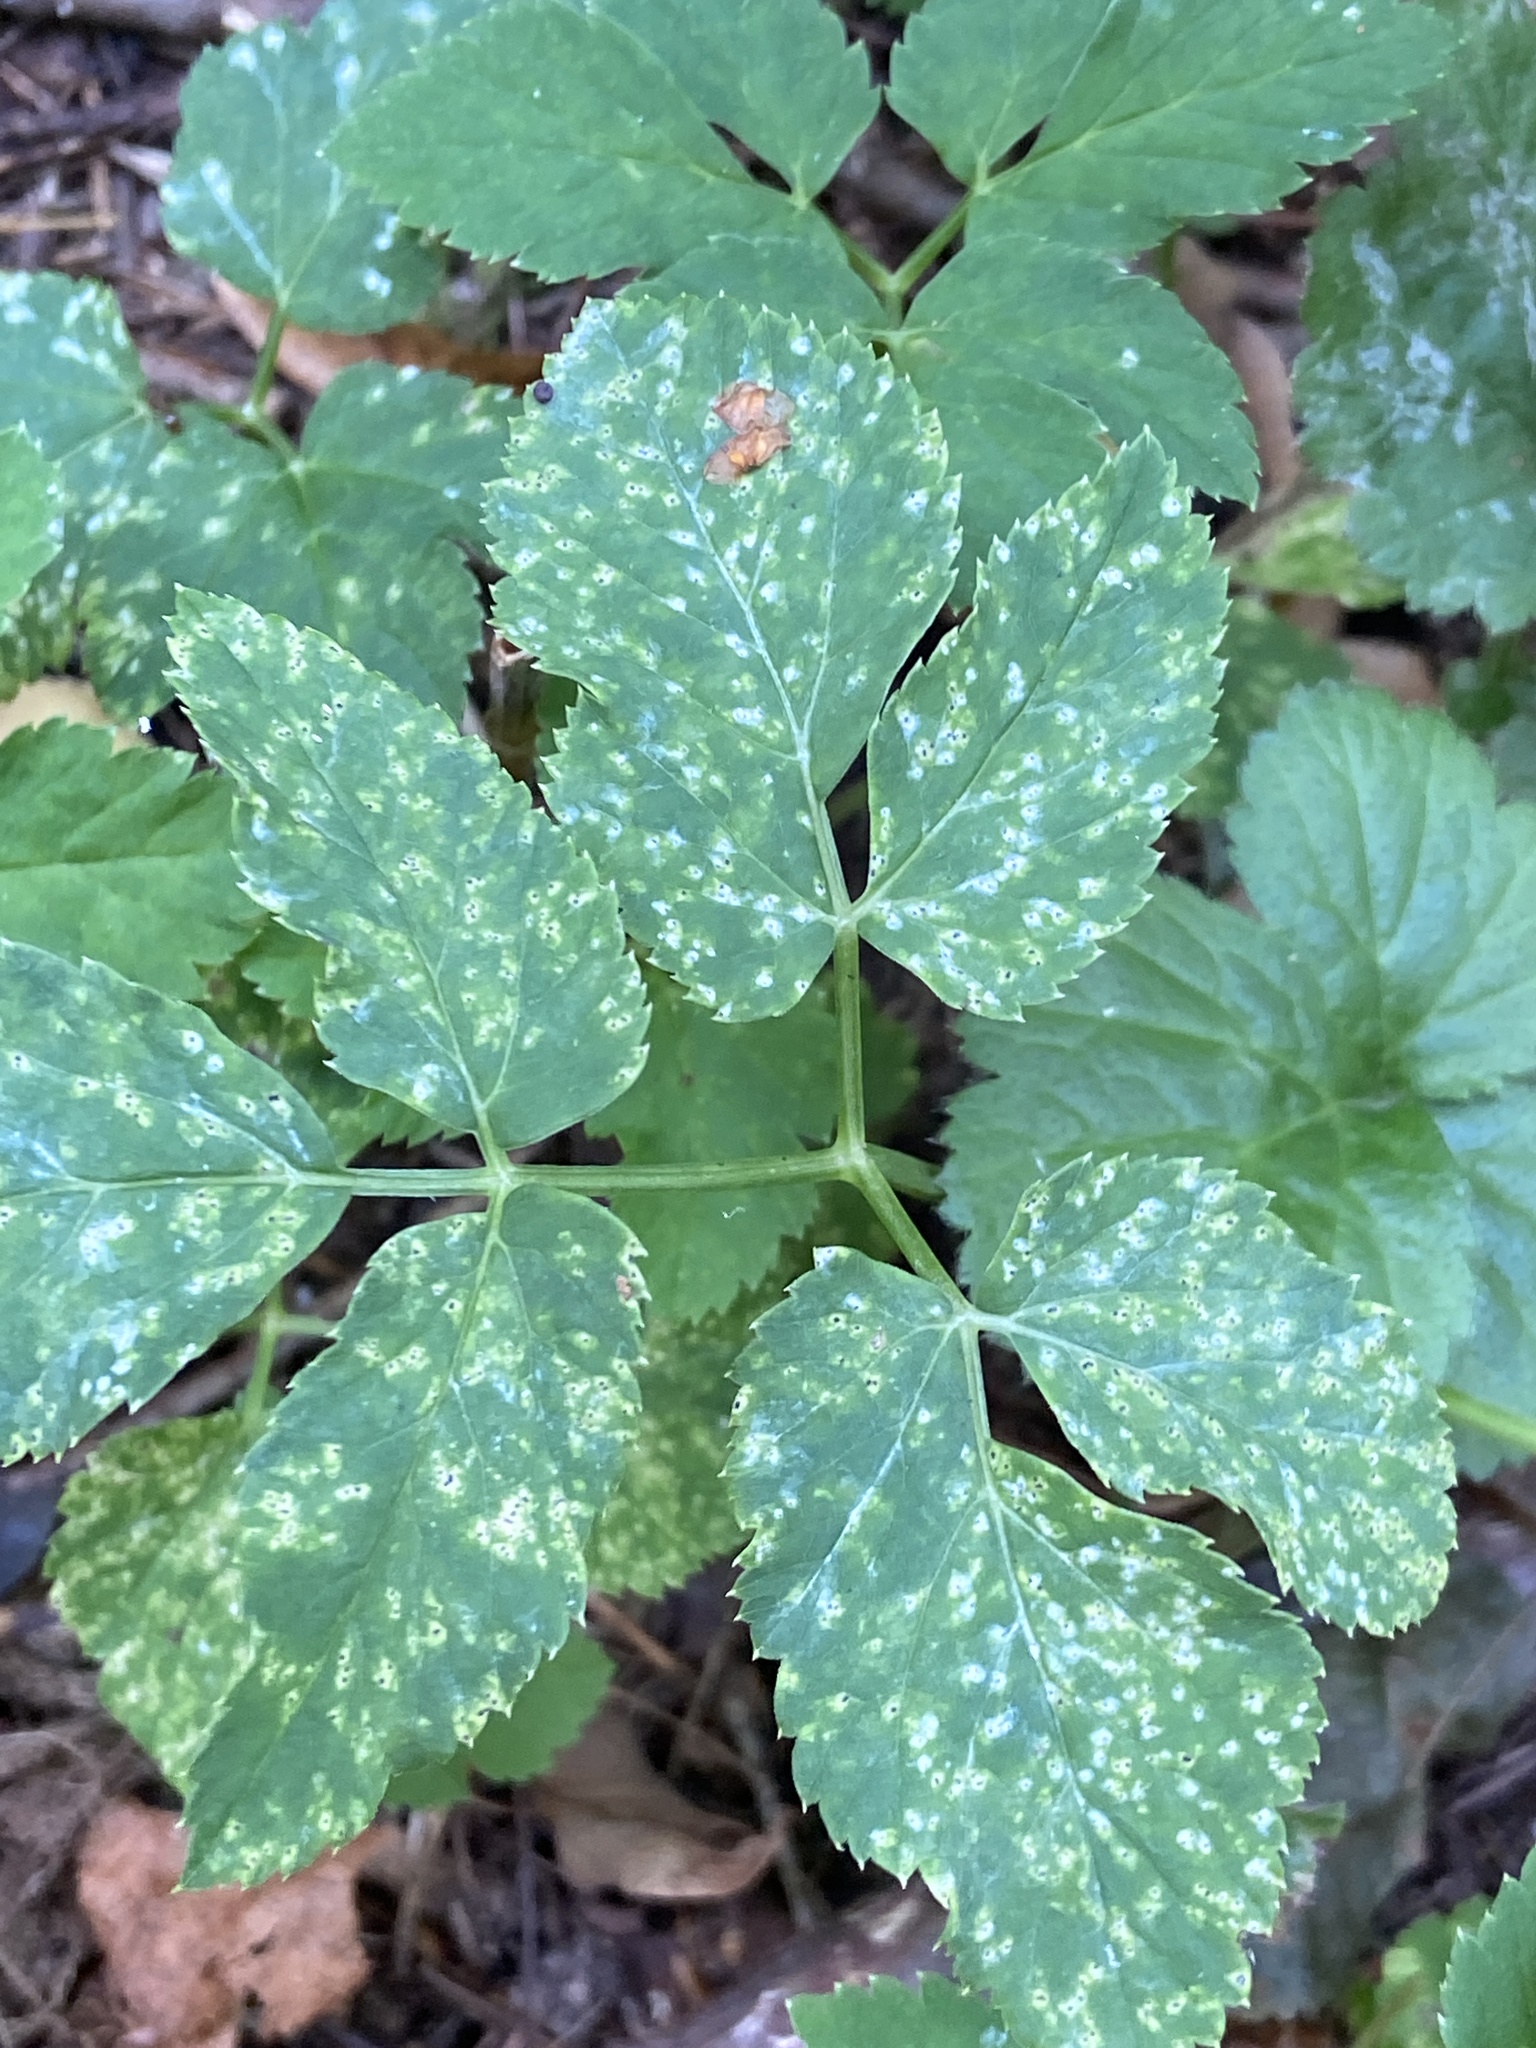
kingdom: Plantae
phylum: Tracheophyta
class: Magnoliopsida
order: Apiales
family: Apiaceae
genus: Aegopodium
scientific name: Aegopodium podagraria
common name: Ground-elder
